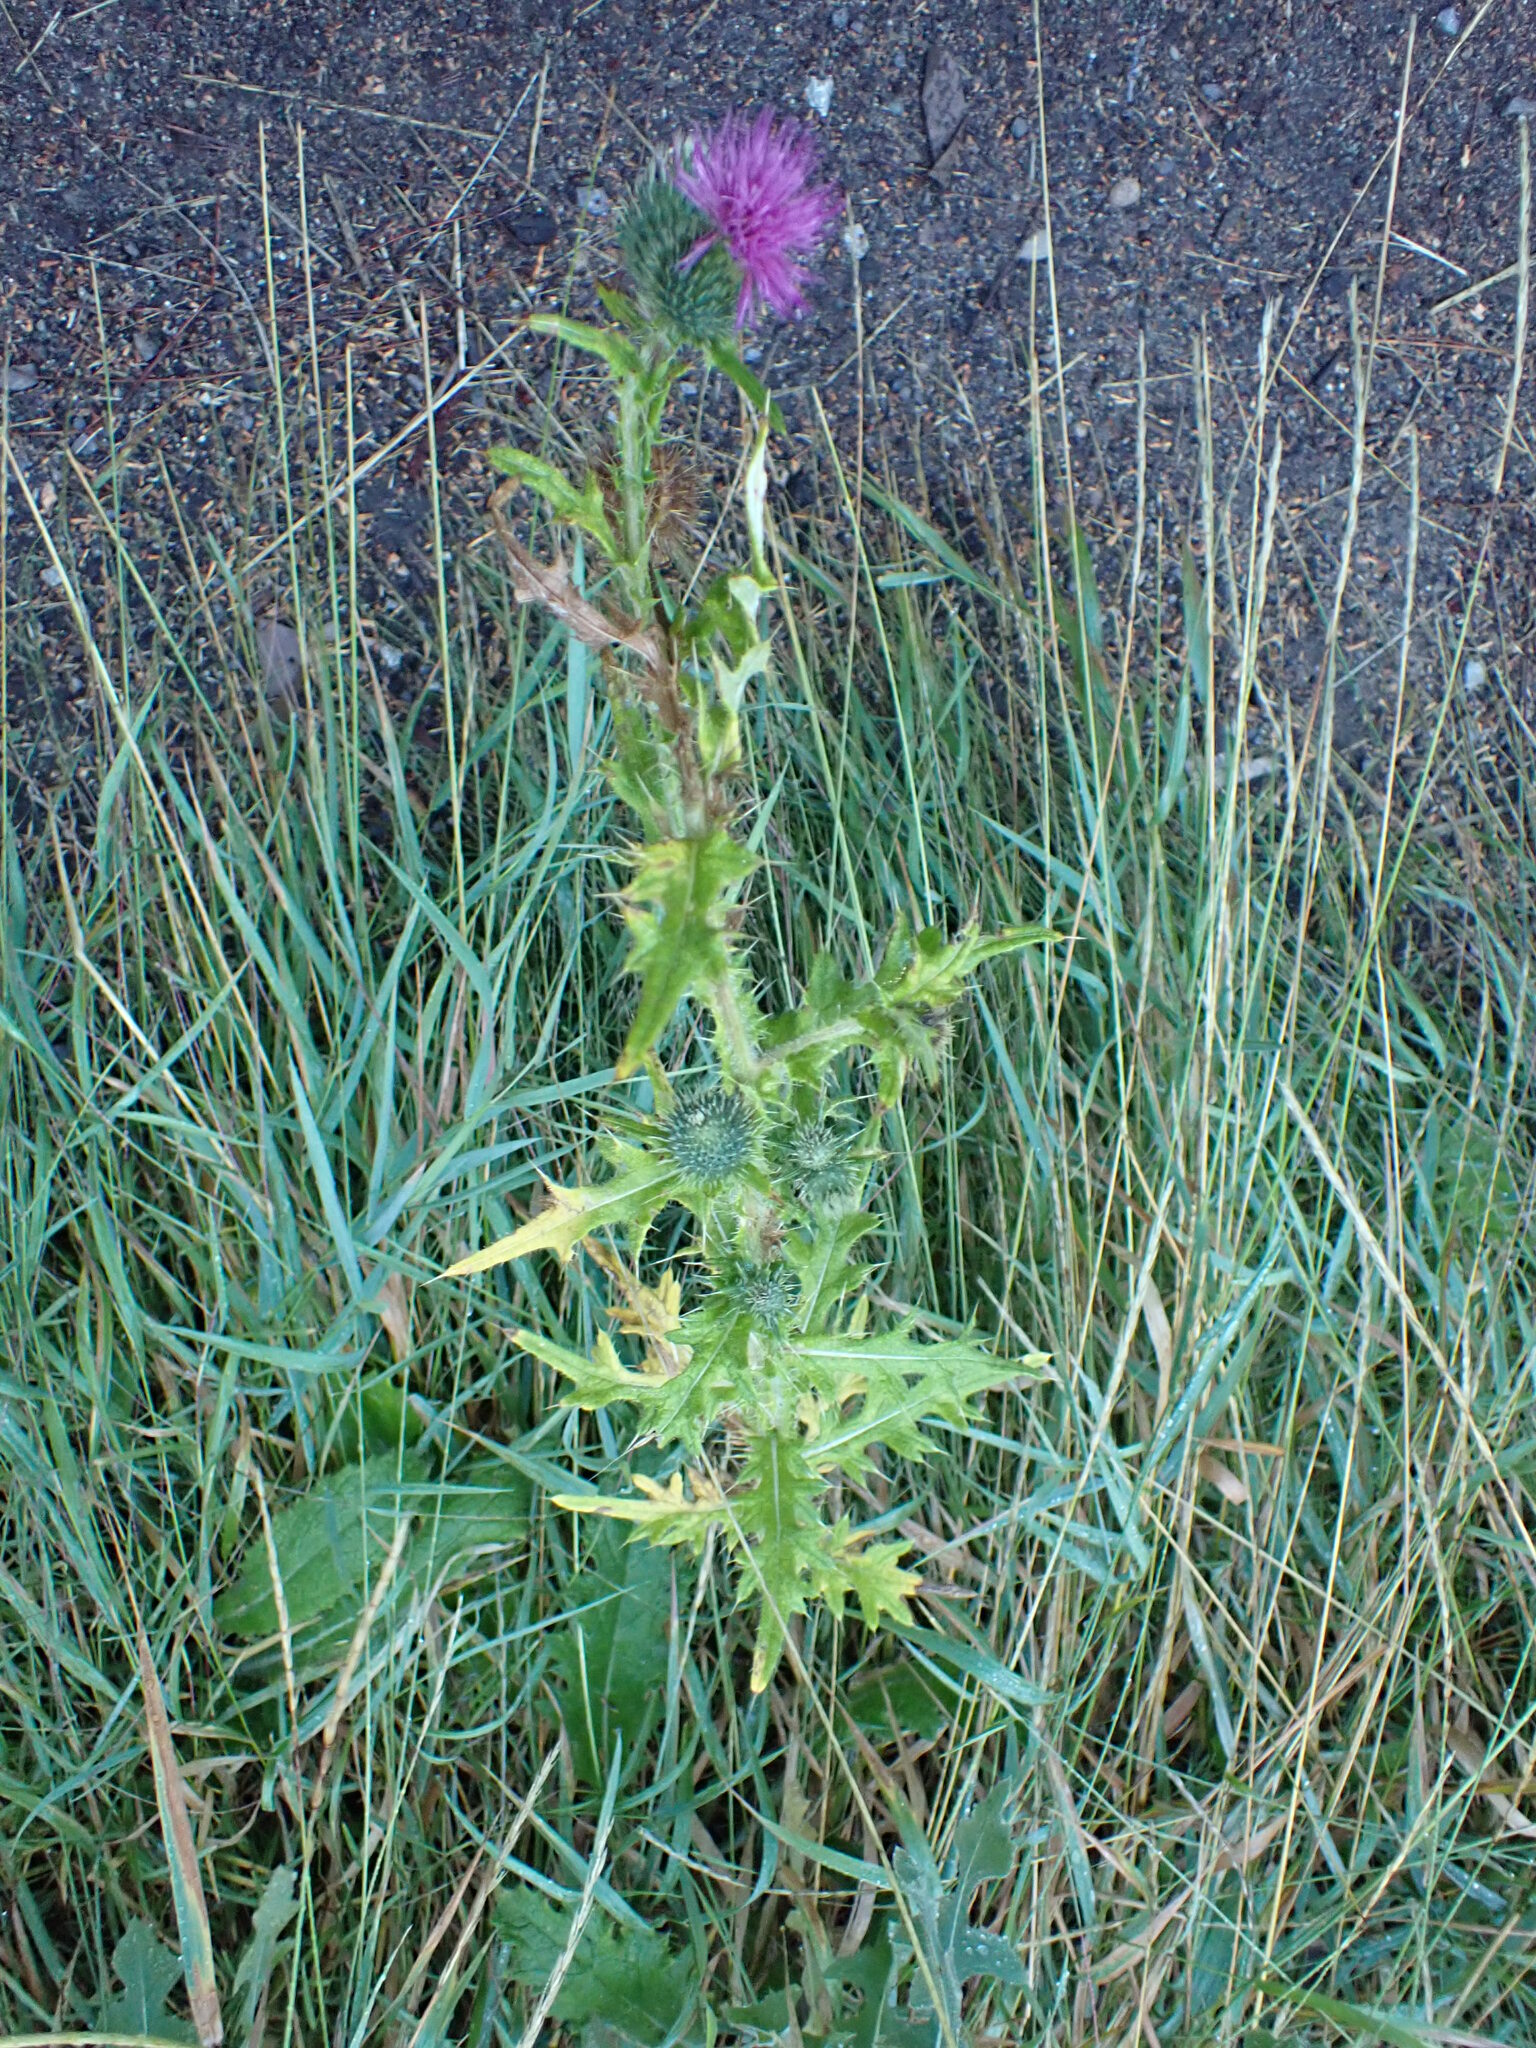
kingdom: Plantae
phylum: Tracheophyta
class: Magnoliopsida
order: Asterales
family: Asteraceae
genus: Cirsium
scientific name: Cirsium vulgare
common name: Bull thistle
